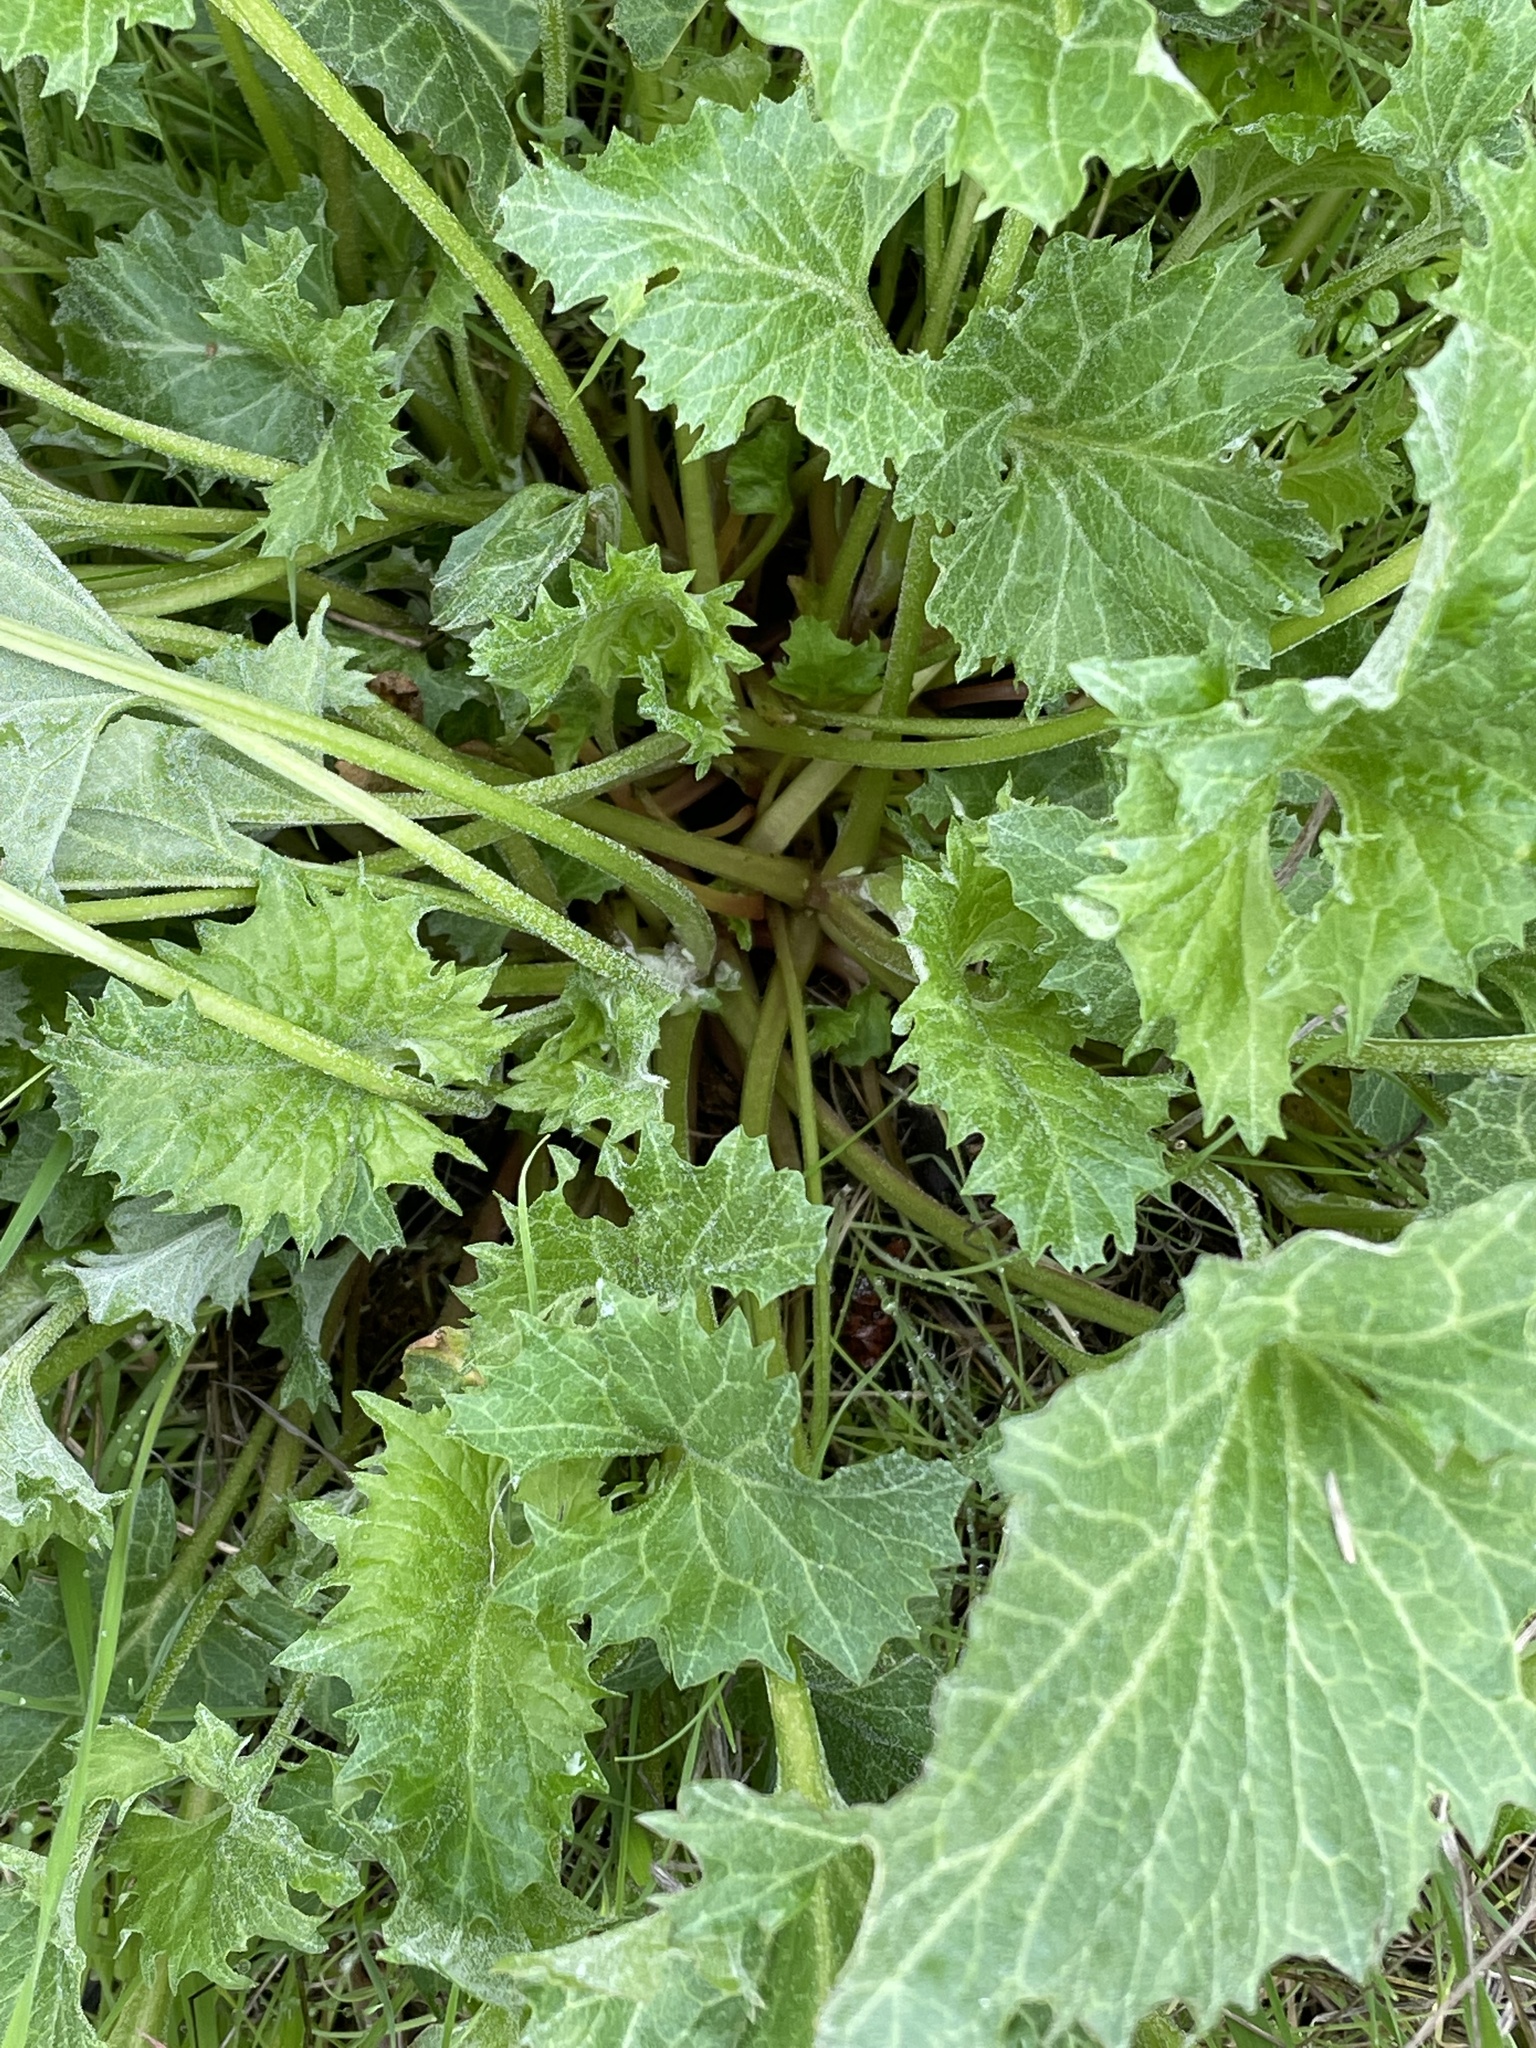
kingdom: Plantae
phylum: Tracheophyta
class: Magnoliopsida
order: Caryophyllales
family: Amaranthaceae
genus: Blitum
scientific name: Blitum californicum
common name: California goosefoot
